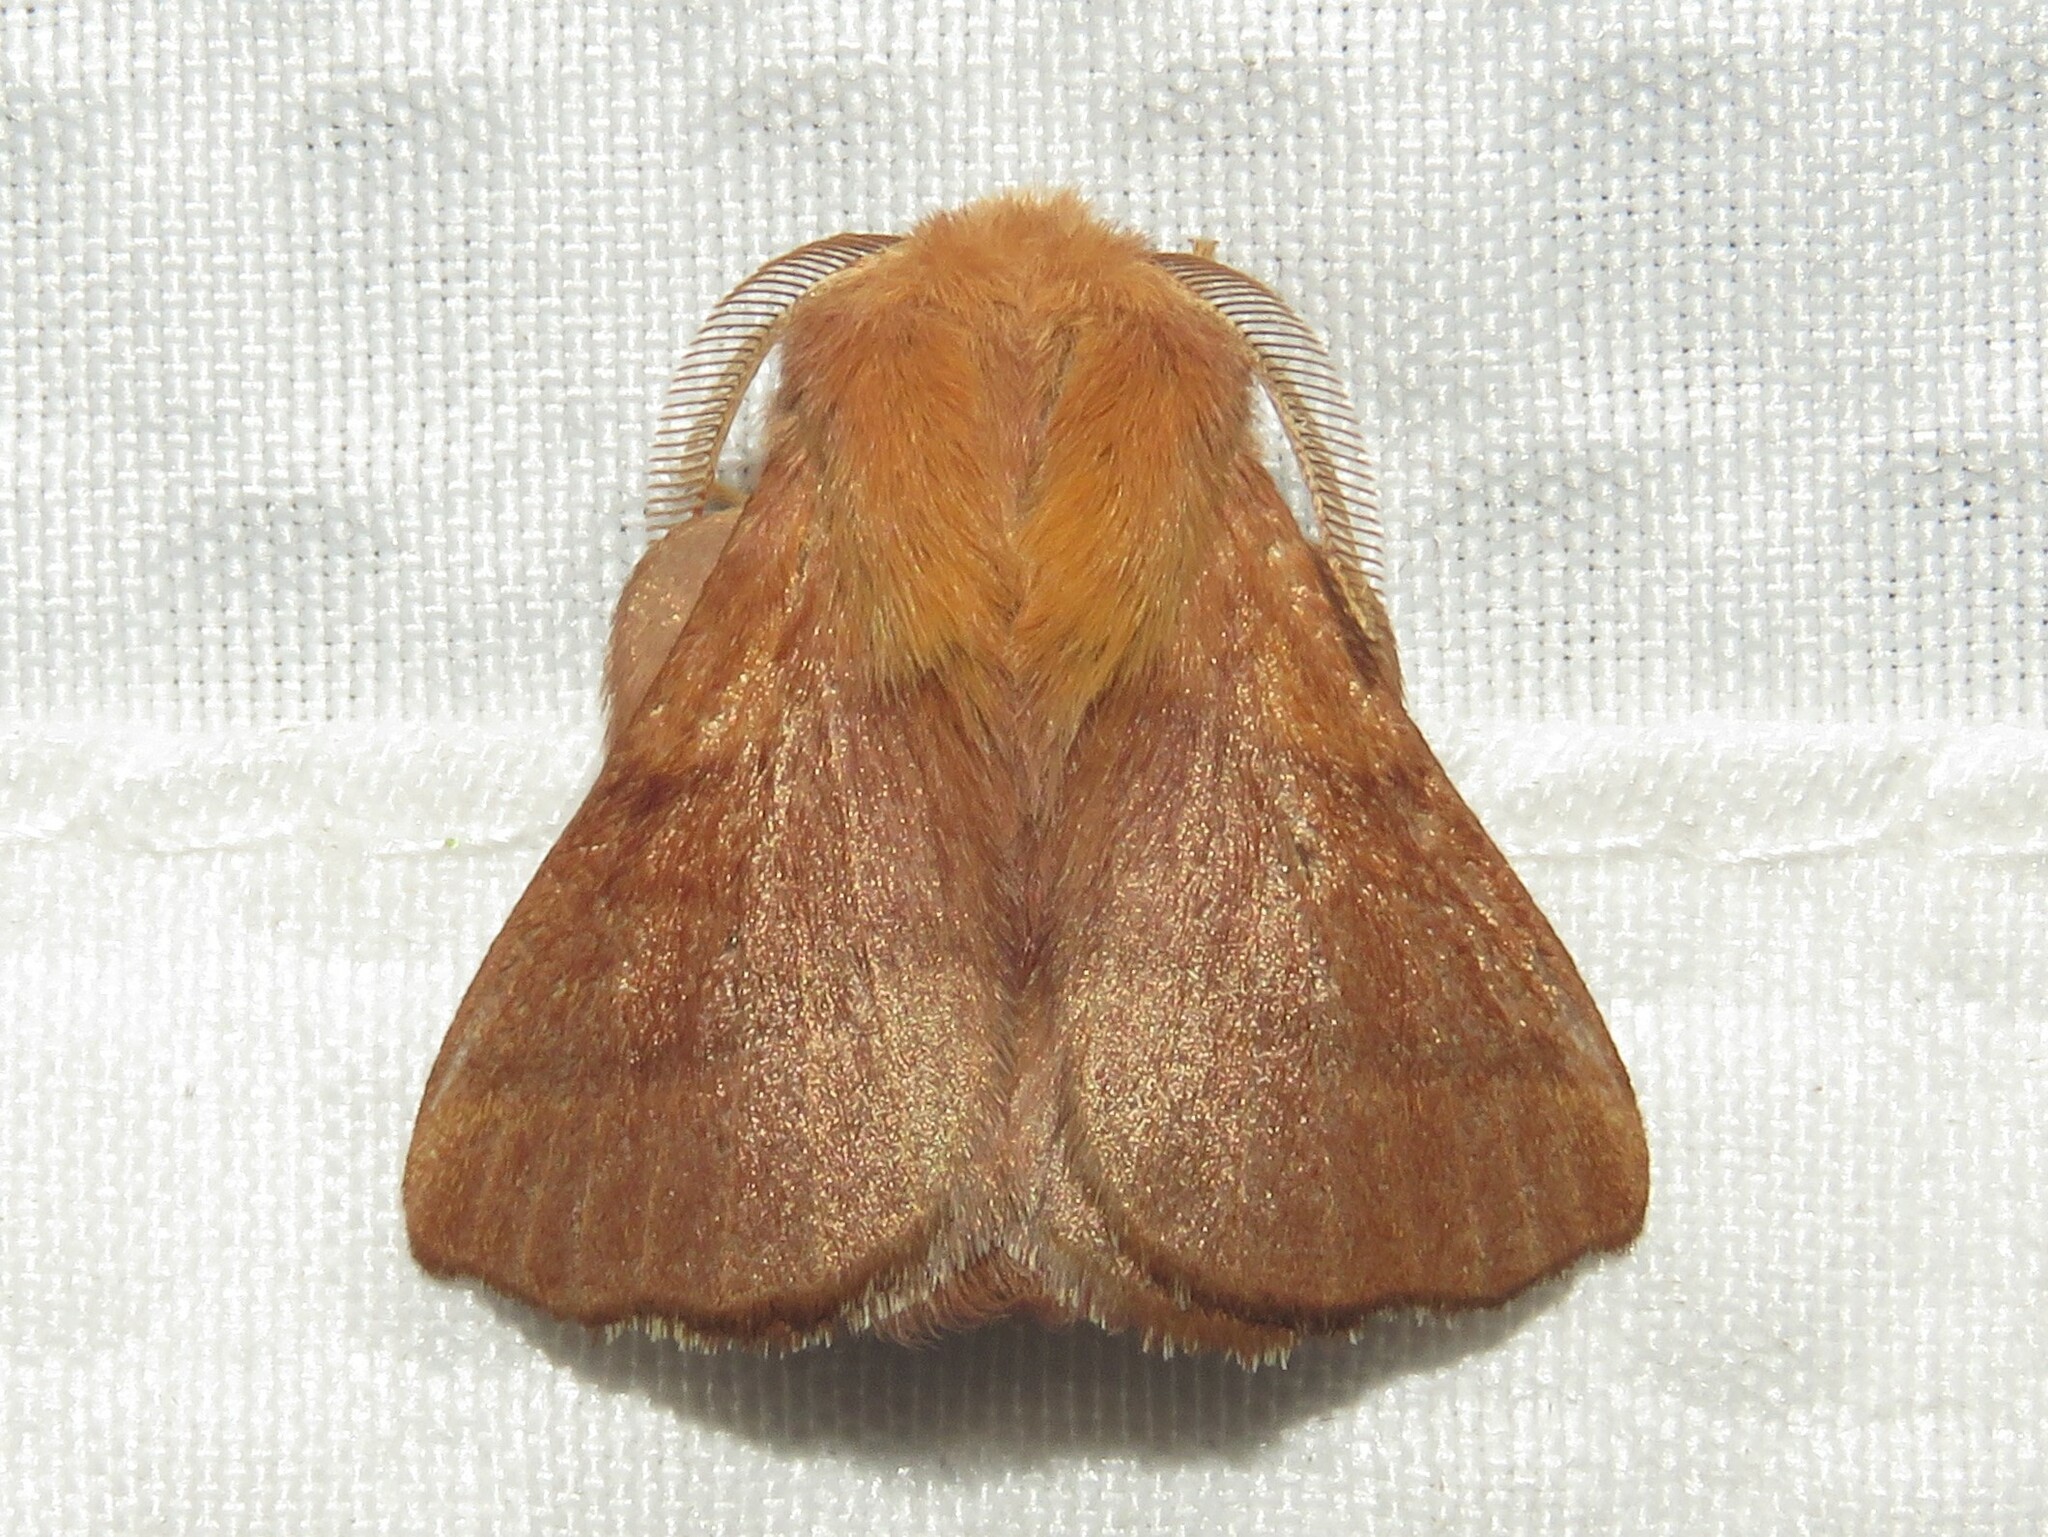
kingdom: Animalia
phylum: Arthropoda
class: Insecta
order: Lepidoptera
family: Lasiocampidae
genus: Malacosoma
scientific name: Malacosoma disstria
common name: Forest tent caterpillar
